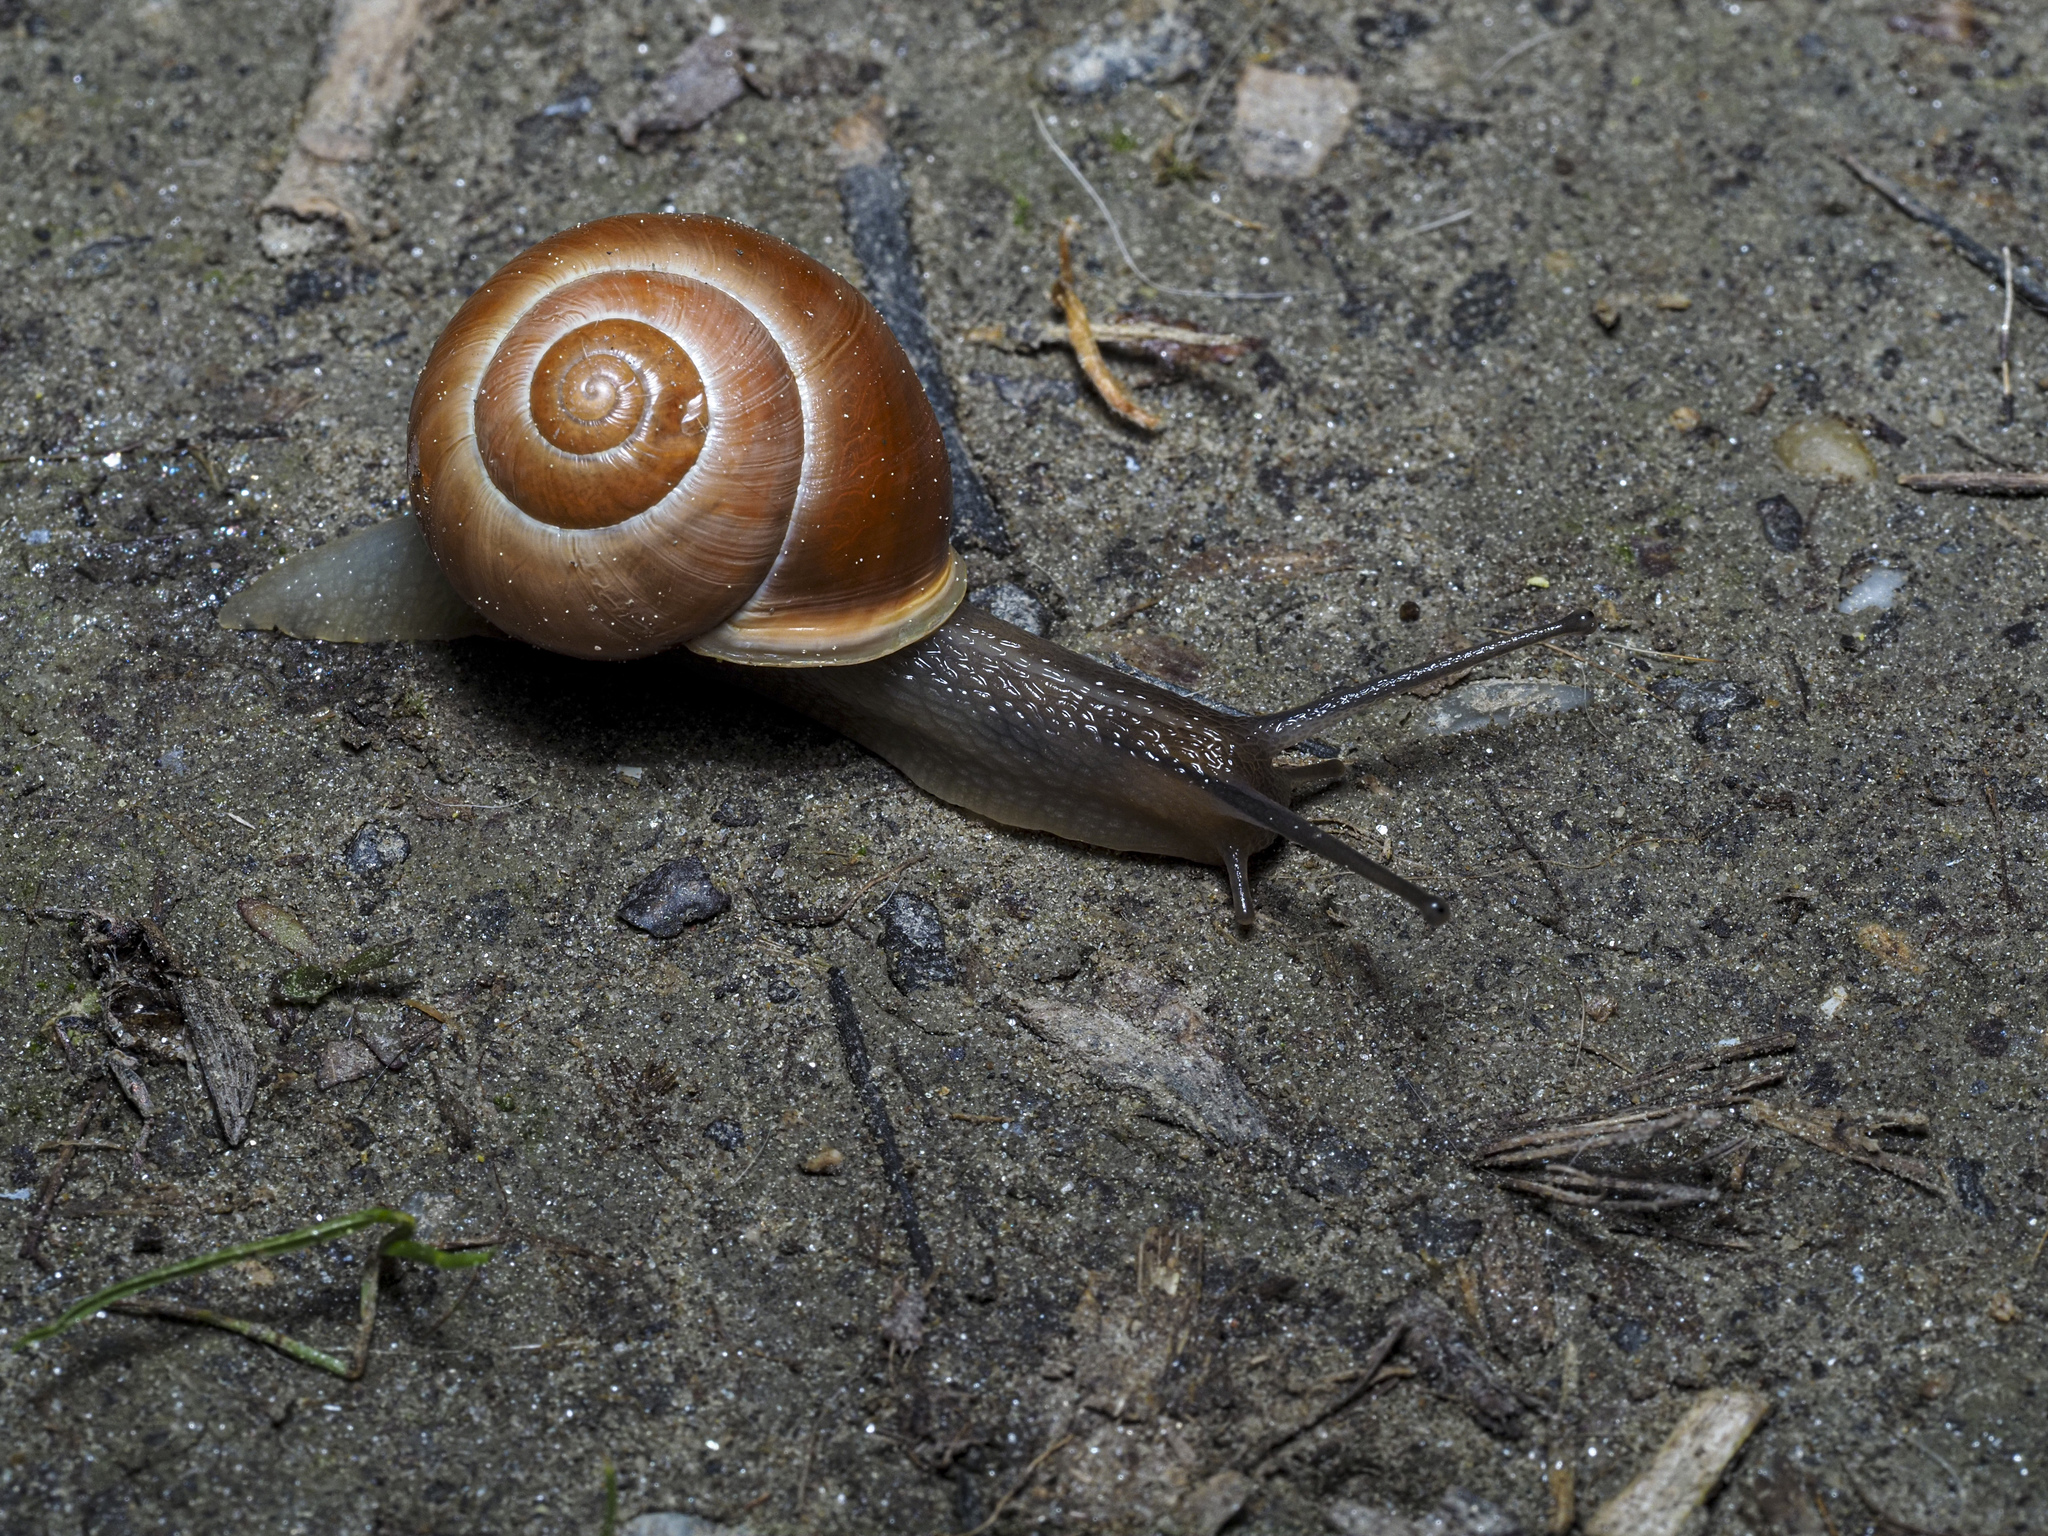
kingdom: Animalia
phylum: Mollusca
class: Gastropoda
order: Stylommatophora
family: Helicidae
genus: Cepaea
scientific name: Cepaea hortensis
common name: White-lip gardensnail
